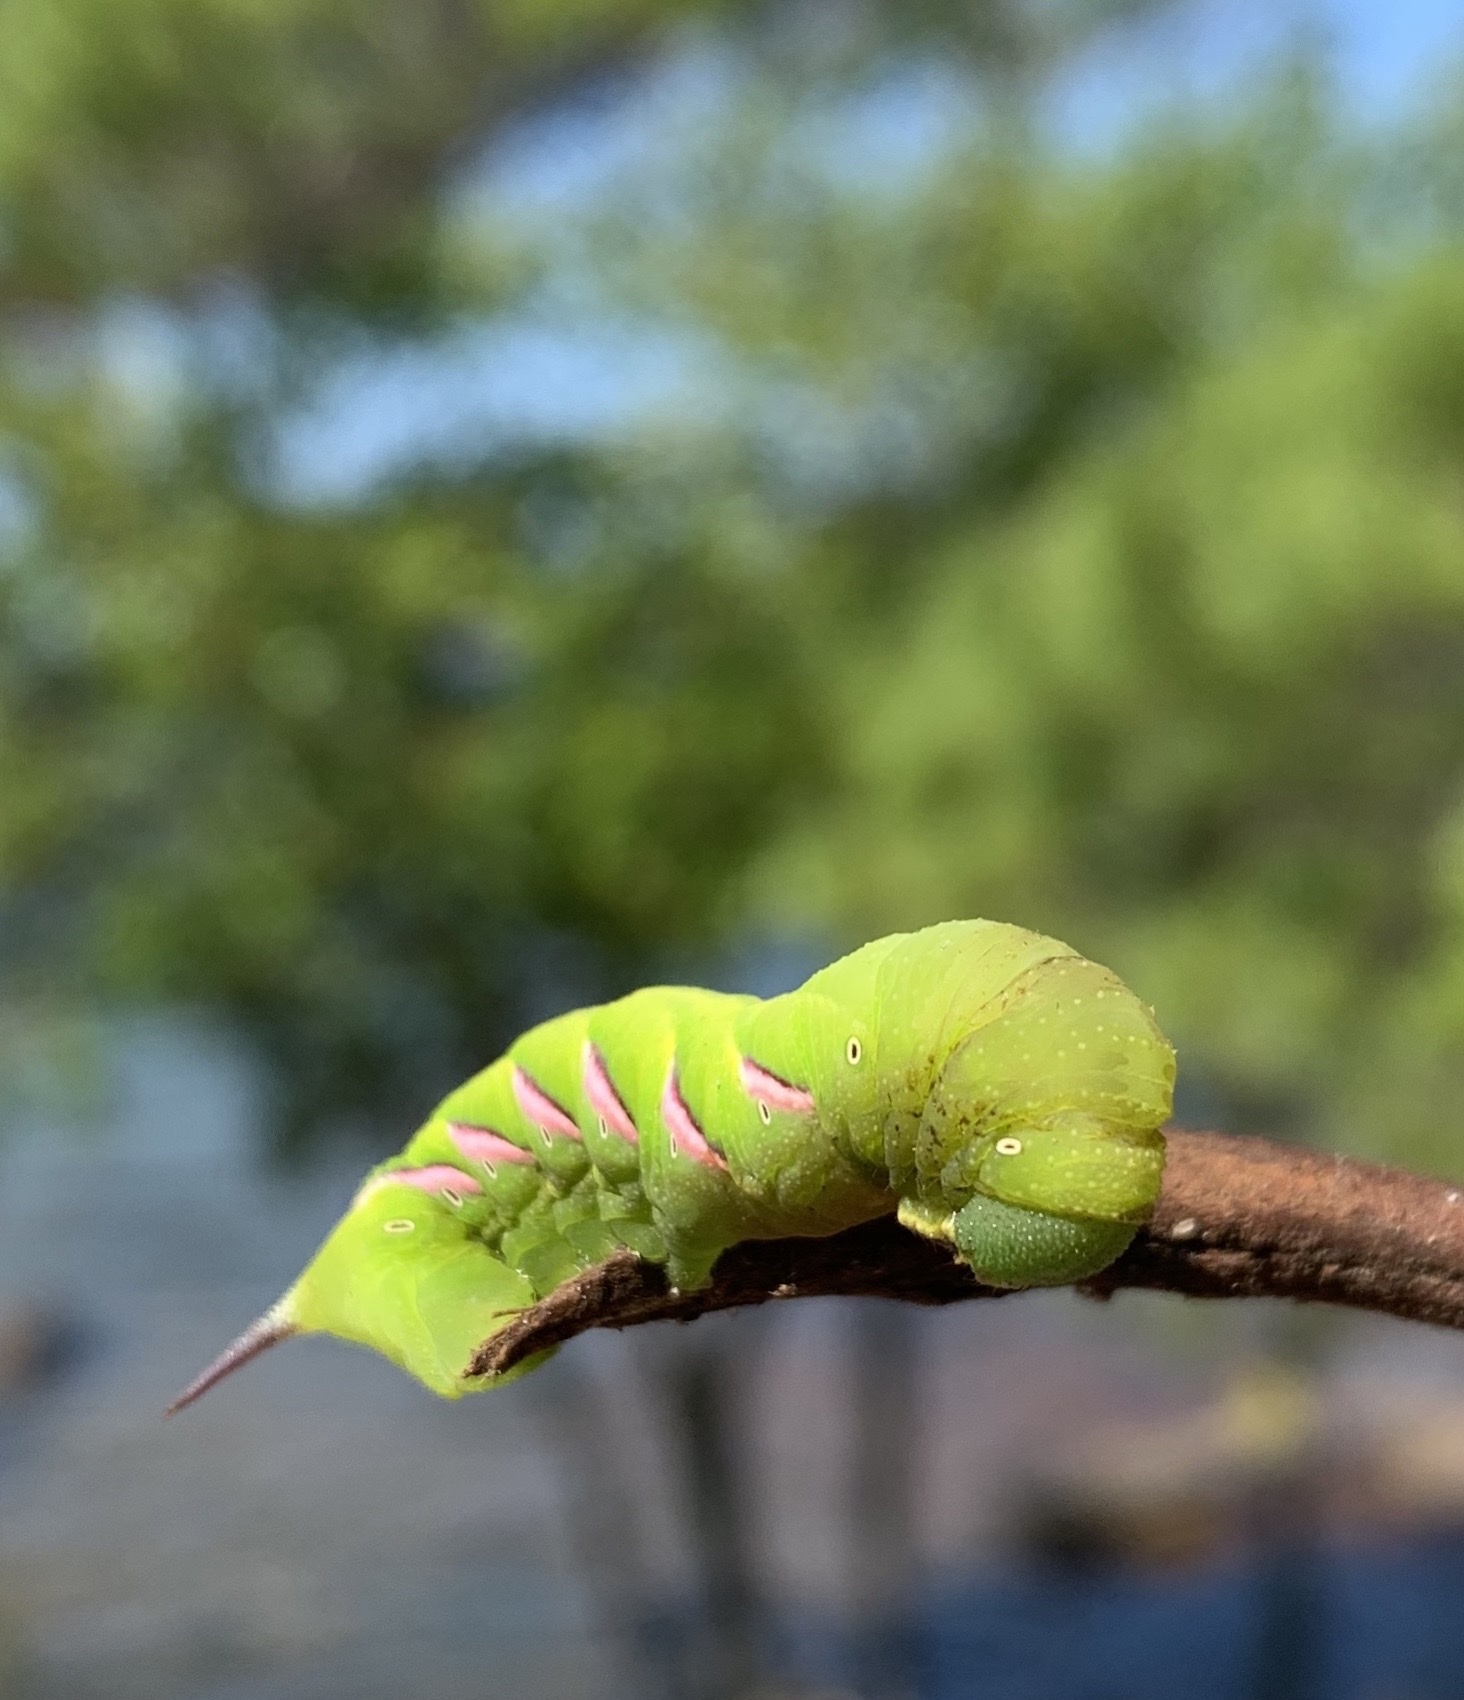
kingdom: Animalia
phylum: Arthropoda
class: Insecta
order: Lepidoptera
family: Sphingidae
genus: Dolba
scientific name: Dolba hyloeus
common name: Pawpaw sphinx
